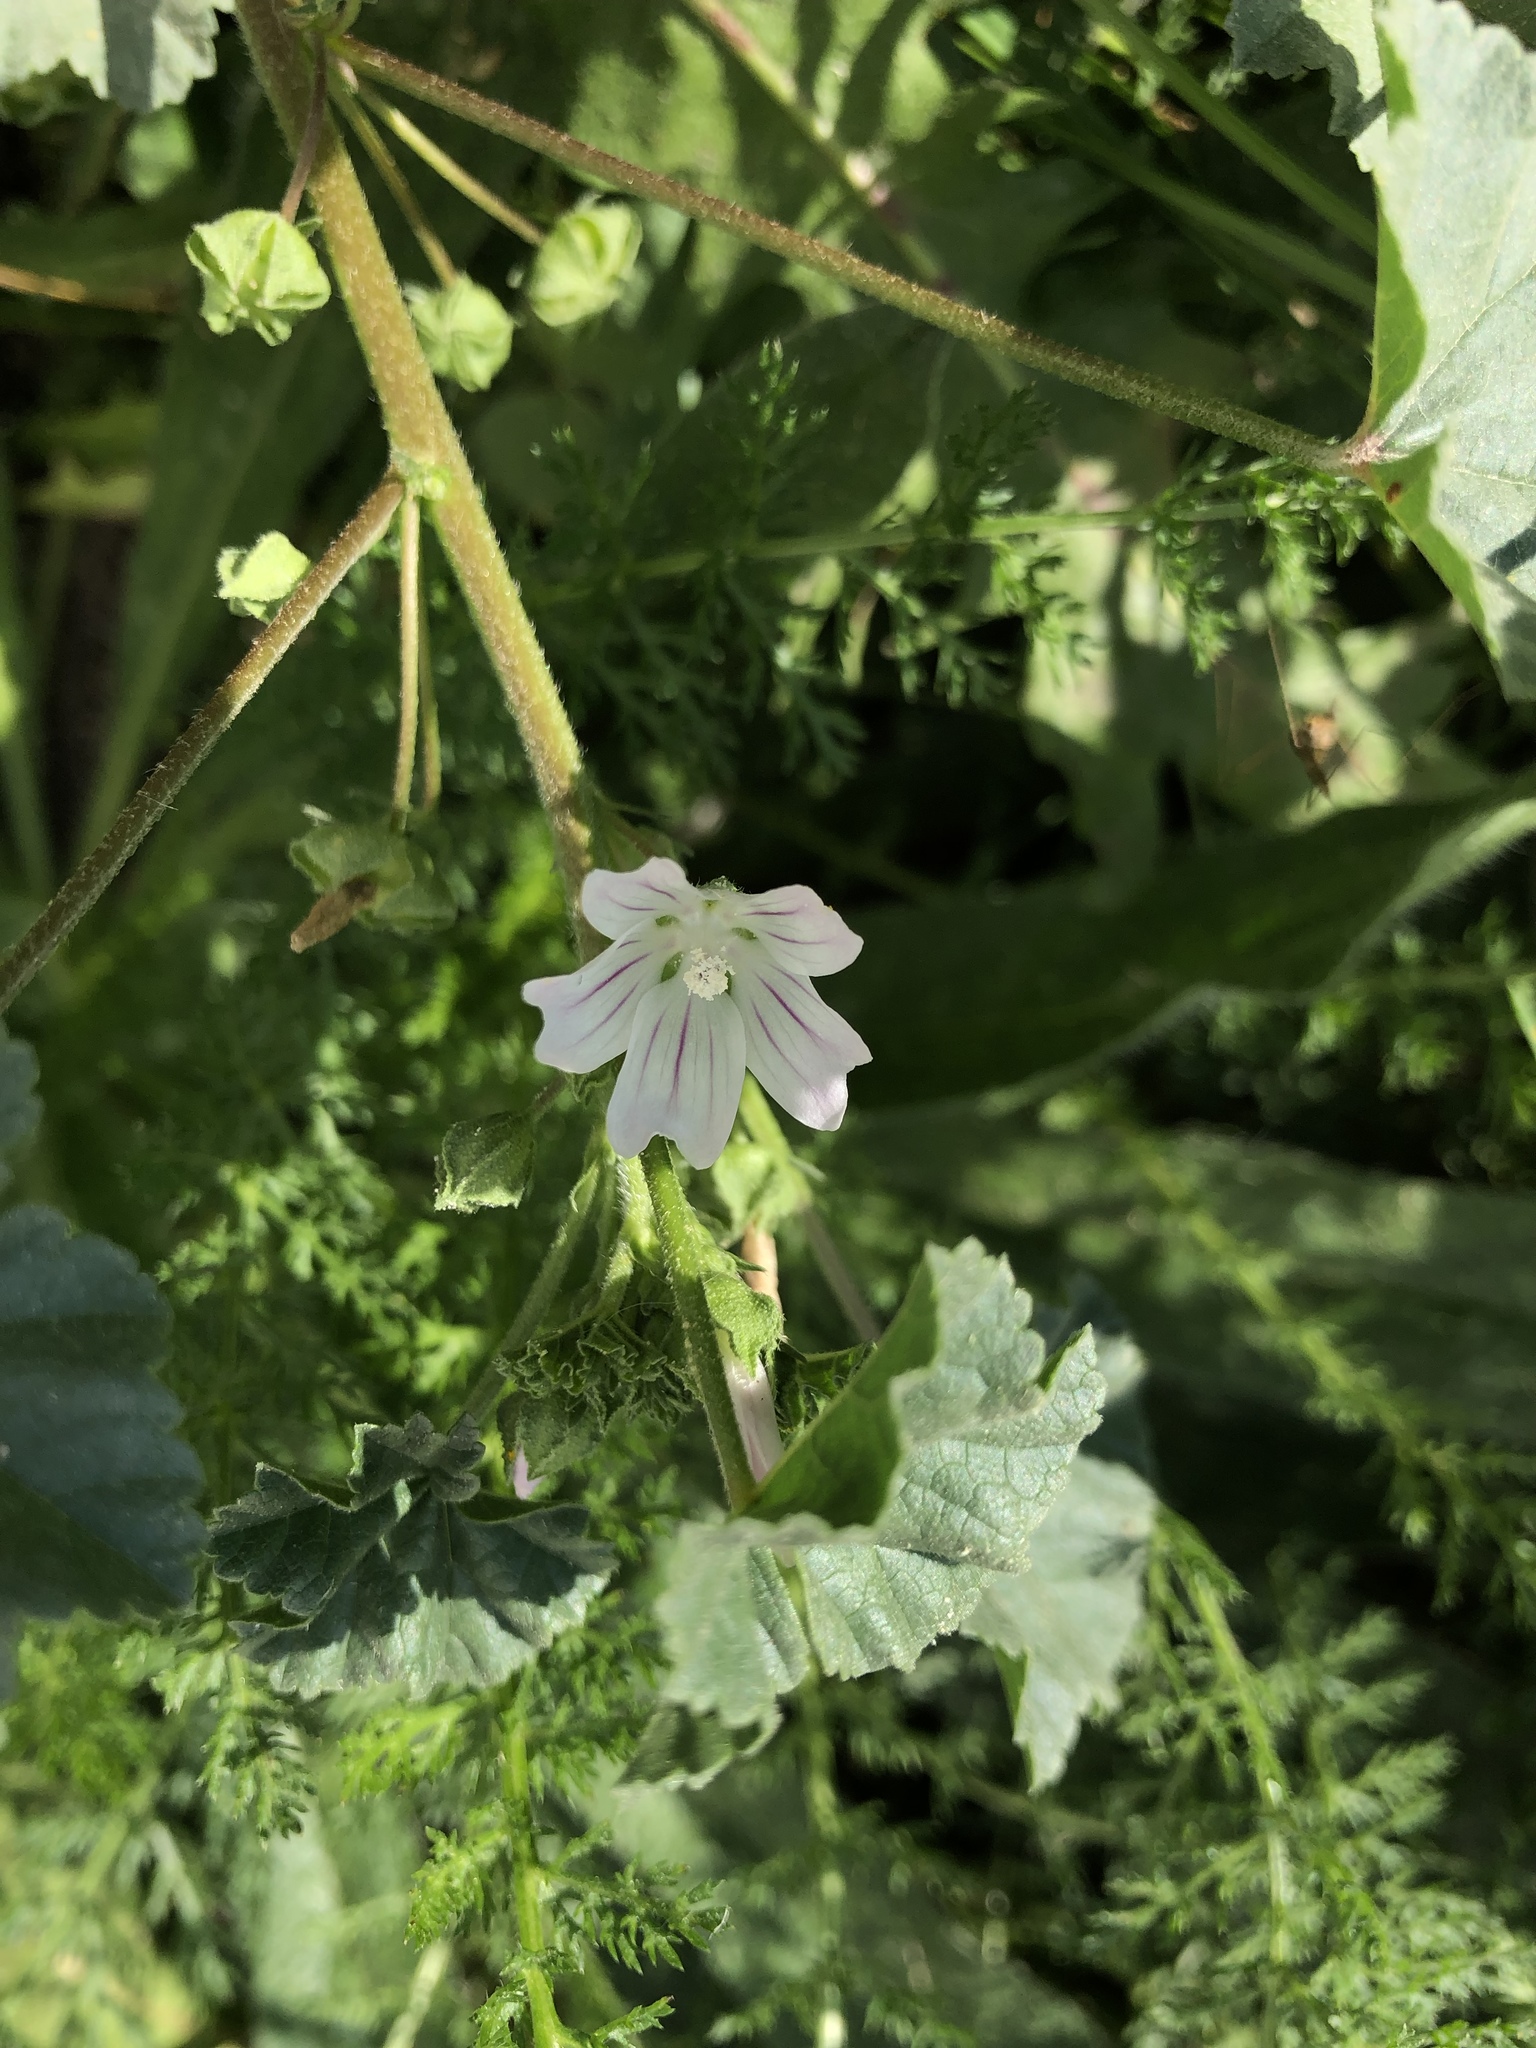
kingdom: Plantae
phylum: Tracheophyta
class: Magnoliopsida
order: Malvales
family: Malvaceae
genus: Malva
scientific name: Malva neglecta
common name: Common mallow
